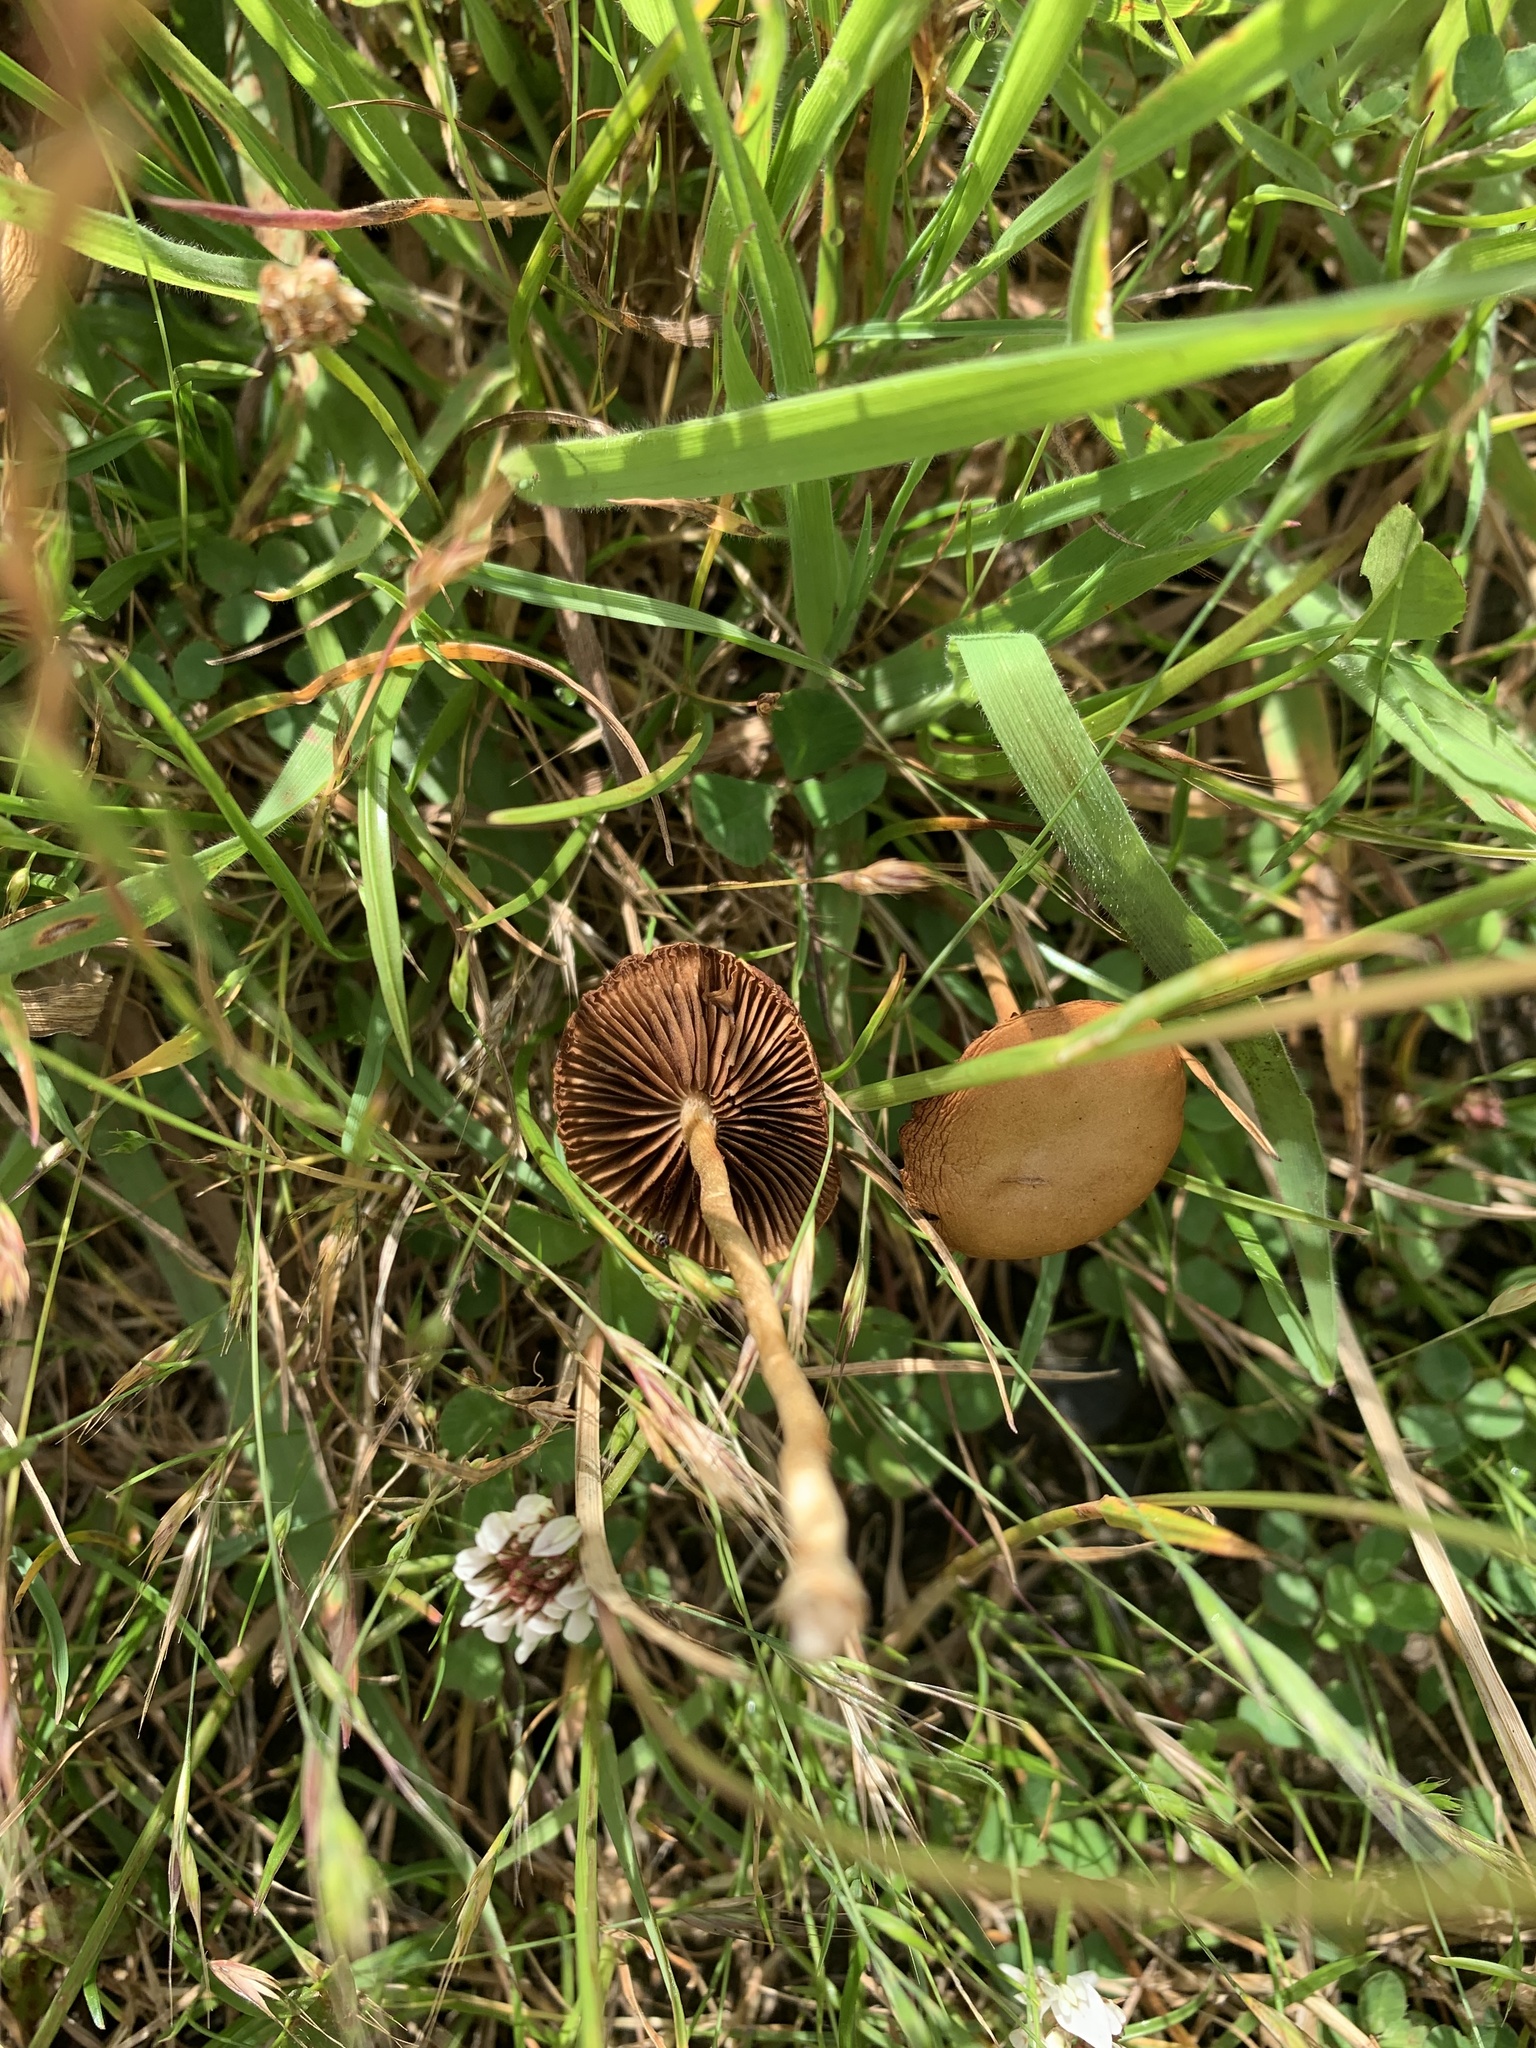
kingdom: Fungi
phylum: Basidiomycota
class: Agaricomycetes
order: Agaricales
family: Strophariaceae
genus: Agrocybe
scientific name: Agrocybe pediades
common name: Common fieldcap
